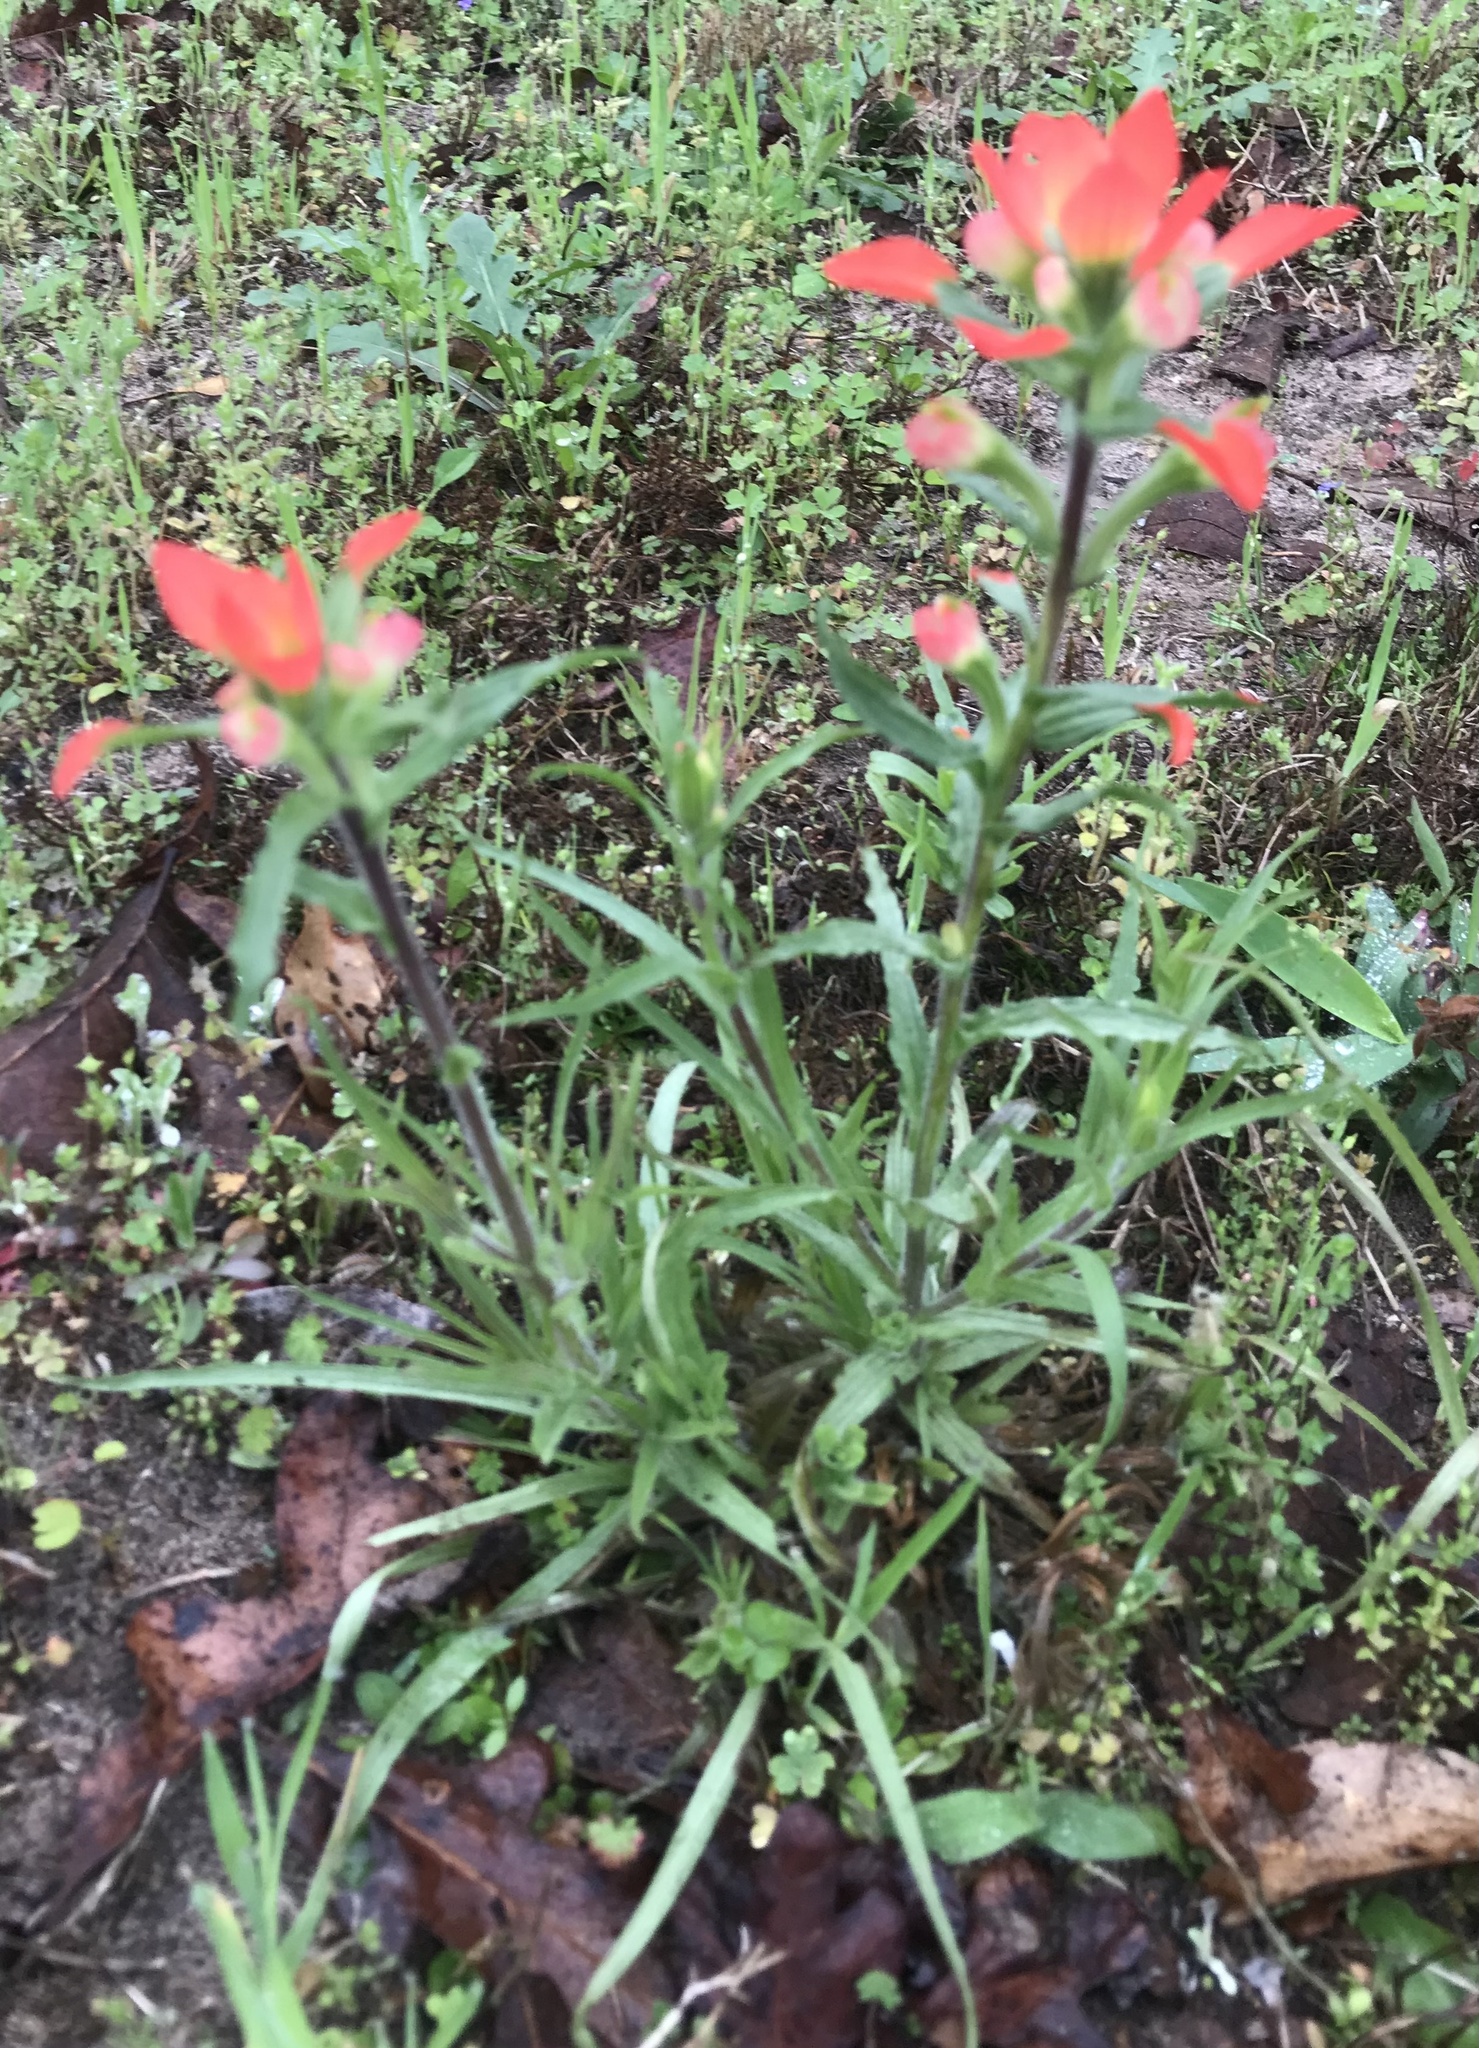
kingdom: Plantae
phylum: Tracheophyta
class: Magnoliopsida
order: Lamiales
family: Orobanchaceae
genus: Castilleja
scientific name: Castilleja indivisa
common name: Texas paintbrush
